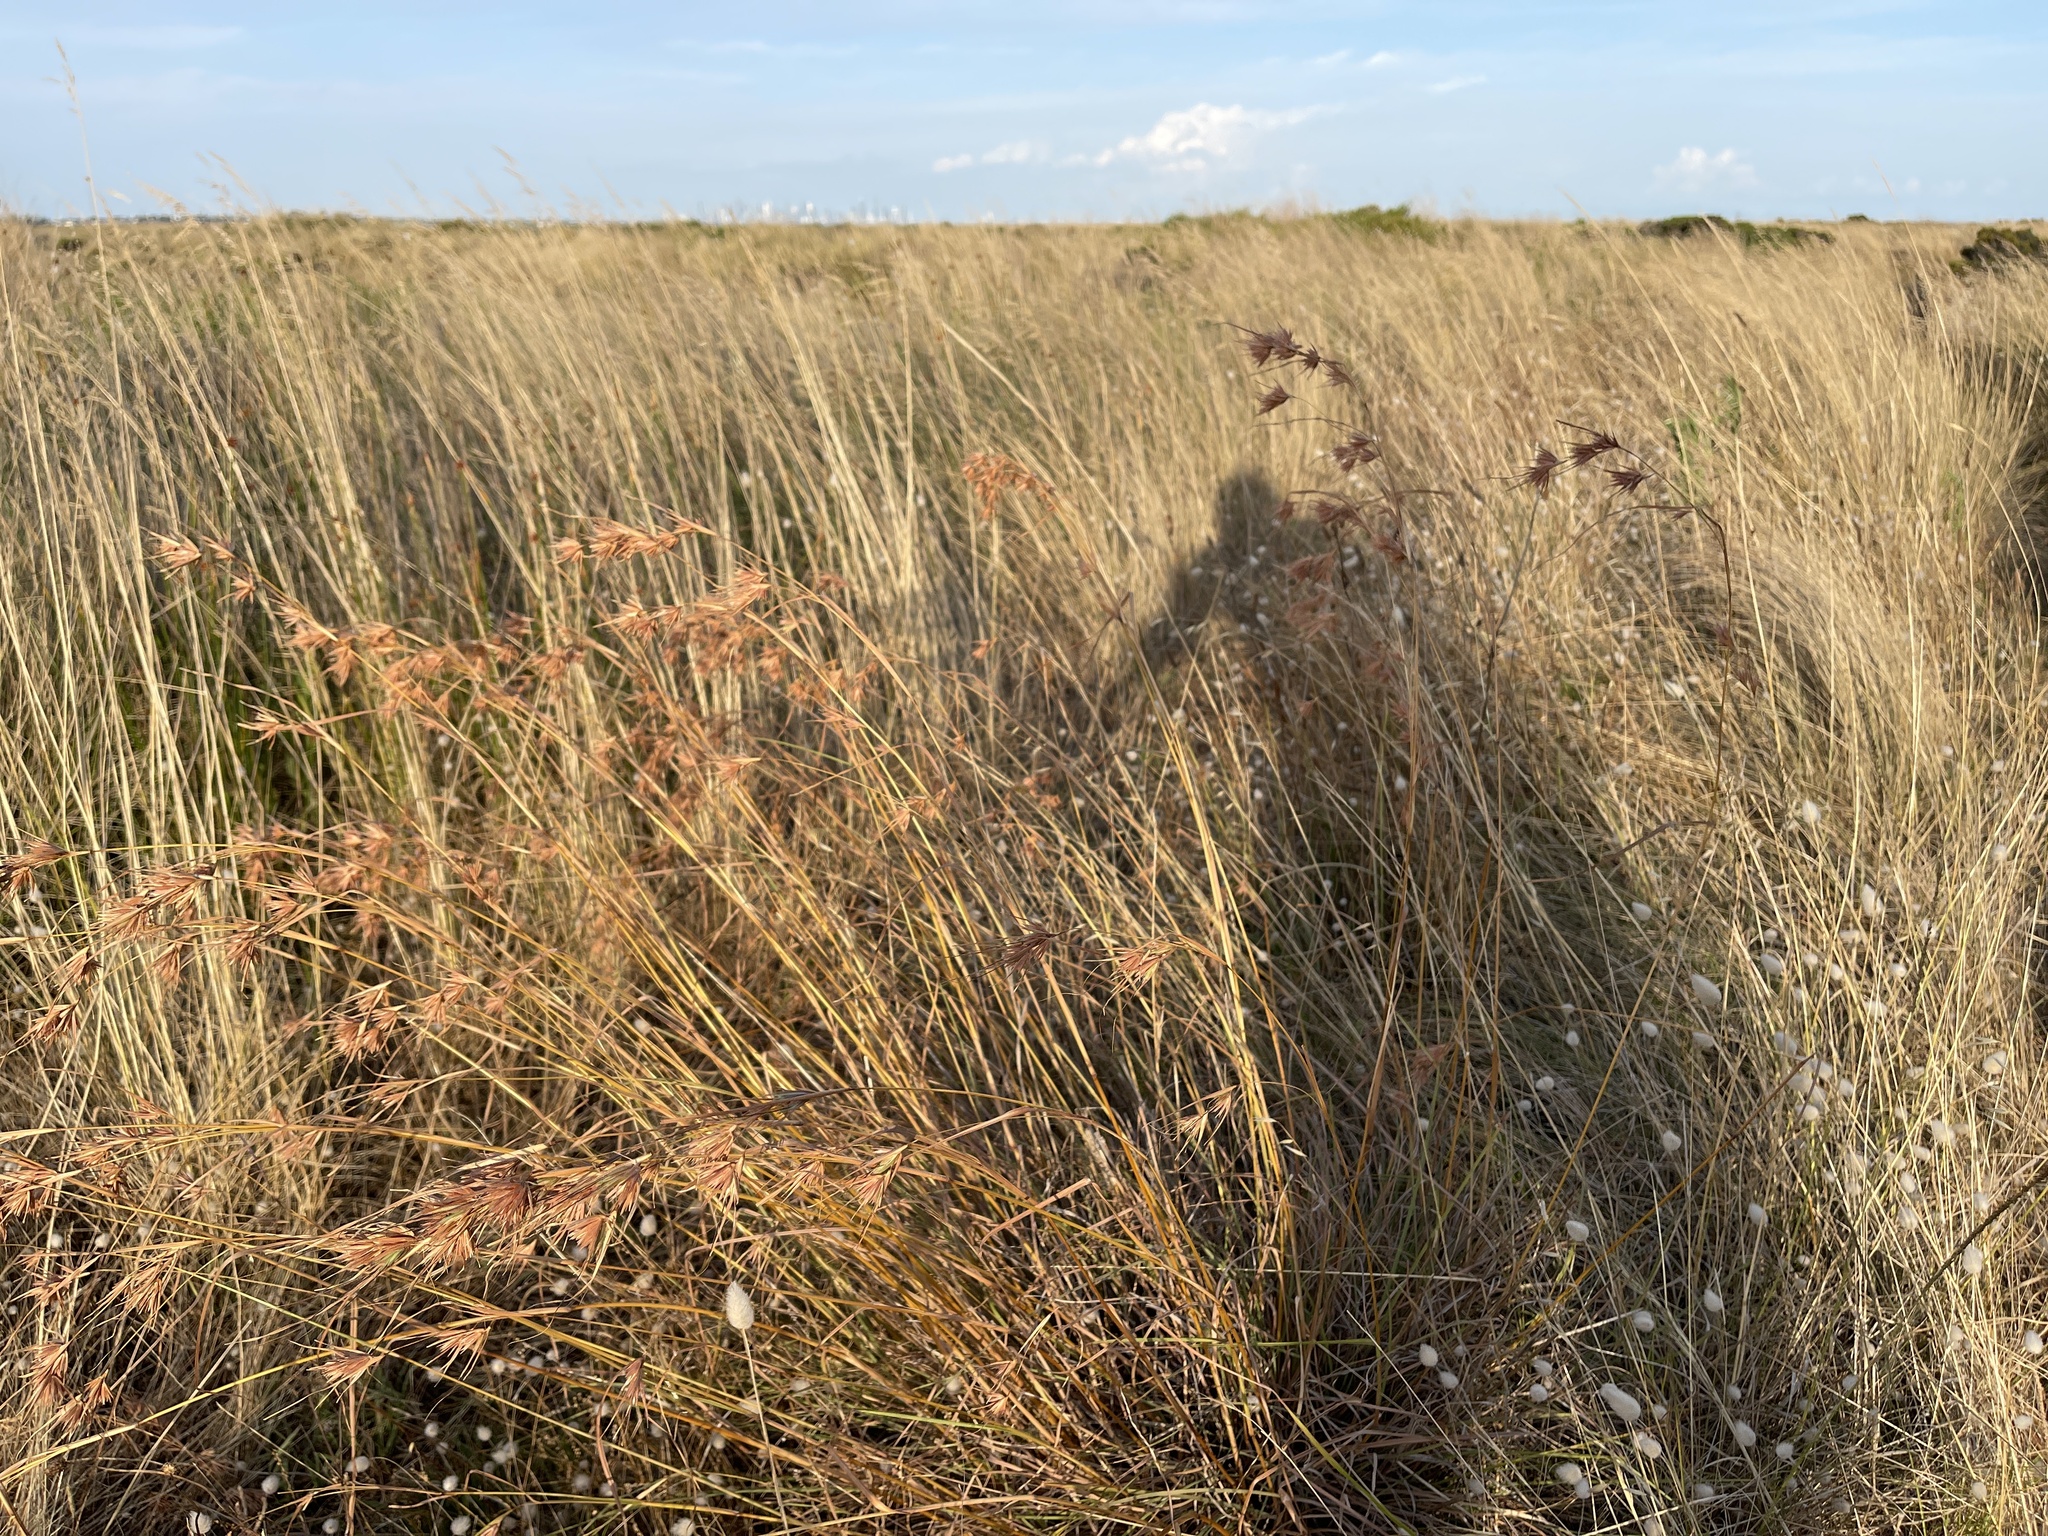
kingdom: Plantae
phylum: Tracheophyta
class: Liliopsida
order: Poales
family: Poaceae
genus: Themeda
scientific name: Themeda triandra
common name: Kangaroo grass
